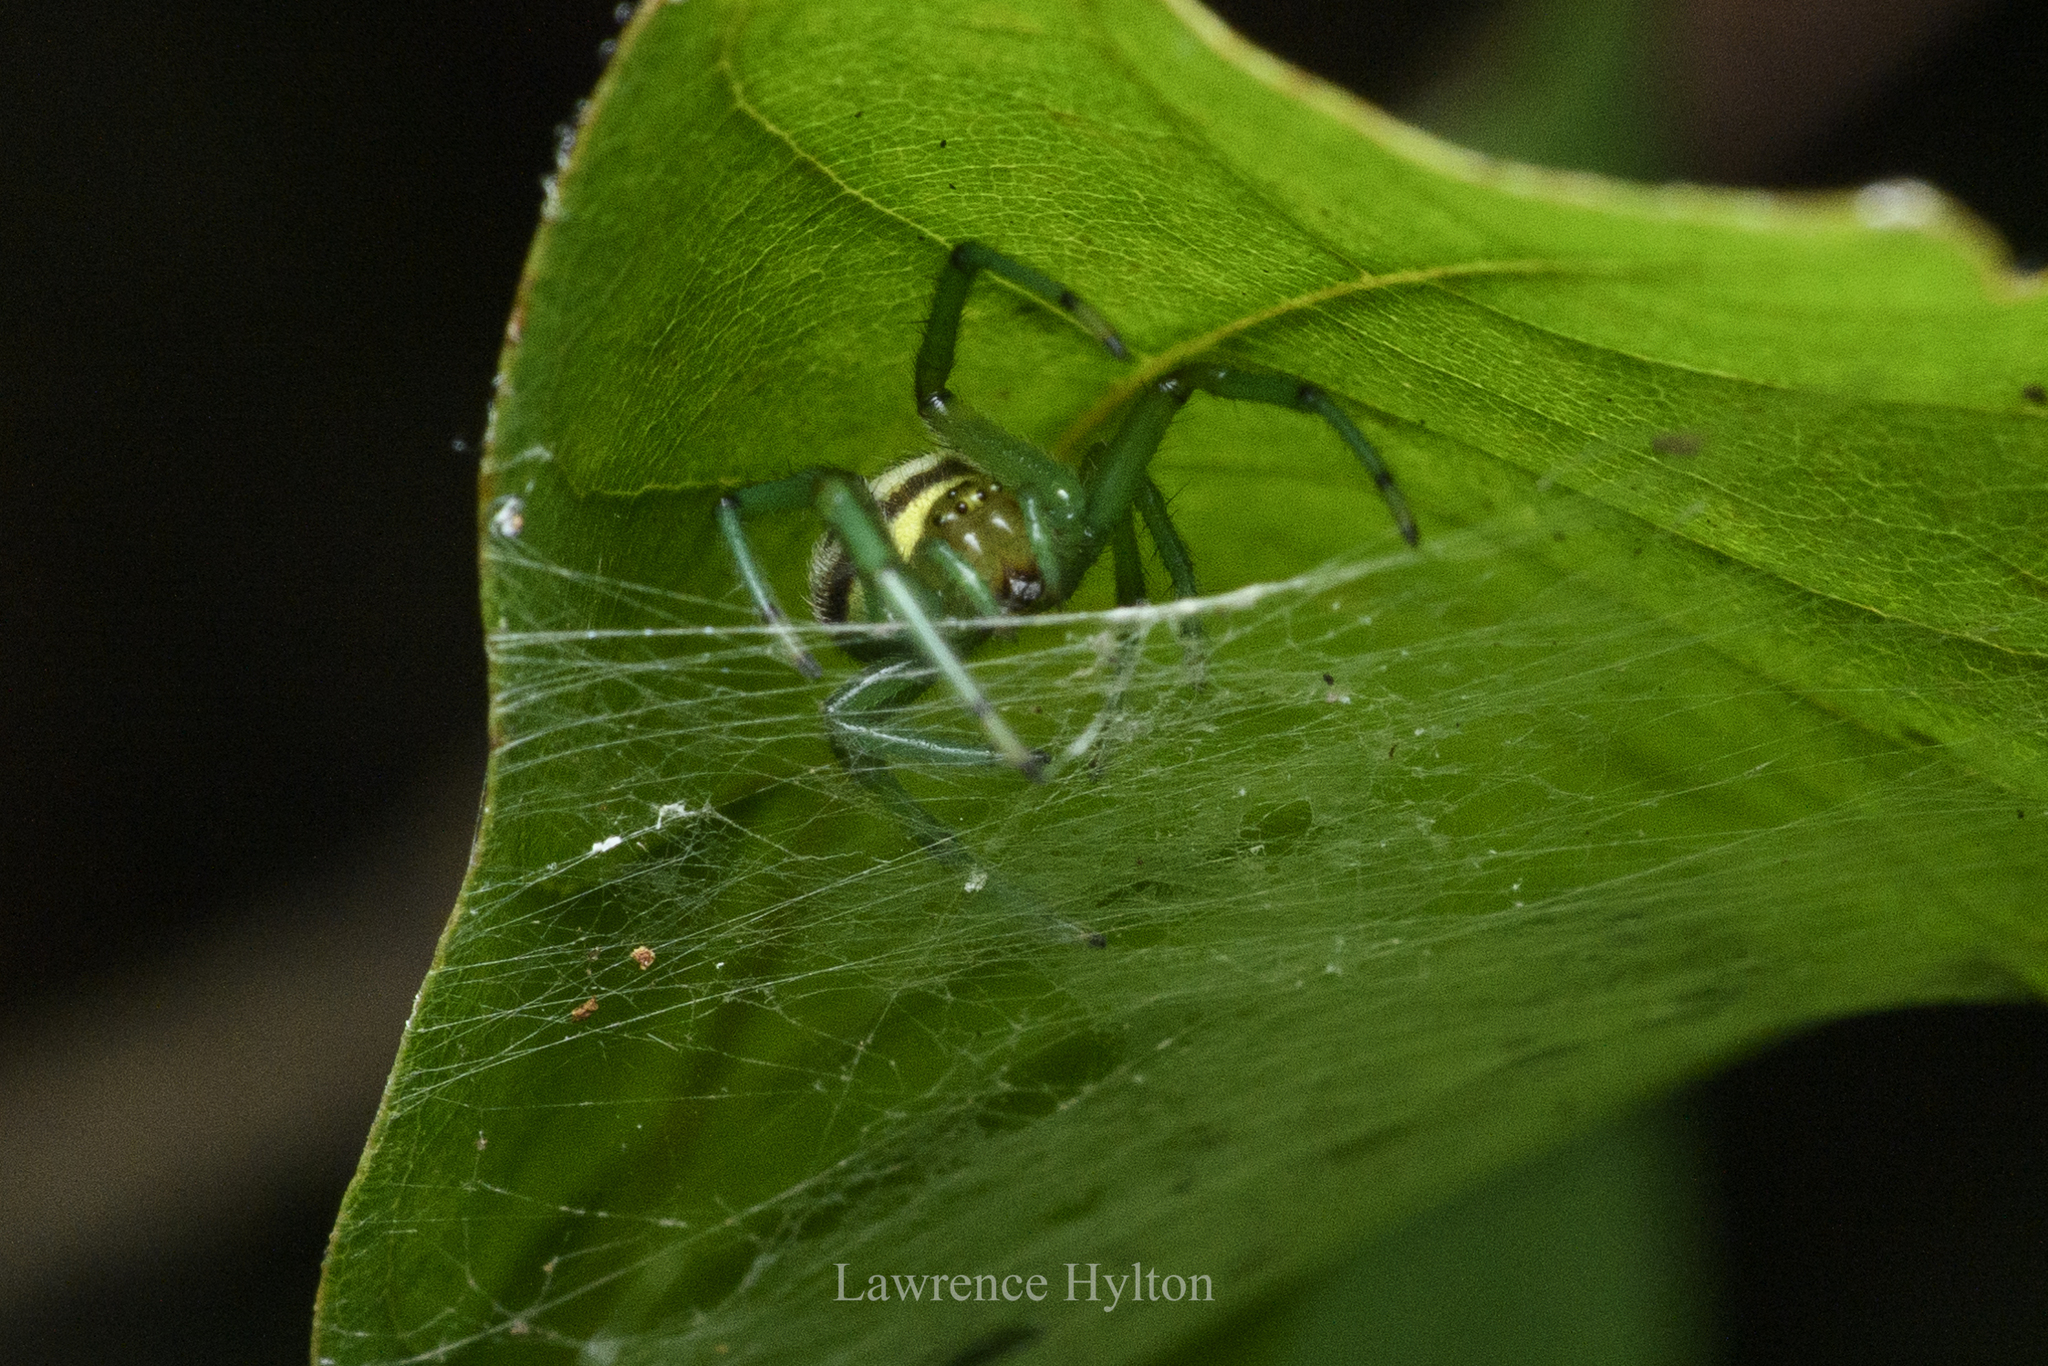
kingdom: Animalia
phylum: Arthropoda
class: Arachnida
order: Araneae
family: Araneidae
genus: Bijoaraneus
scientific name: Bijoaraneus mitificus
